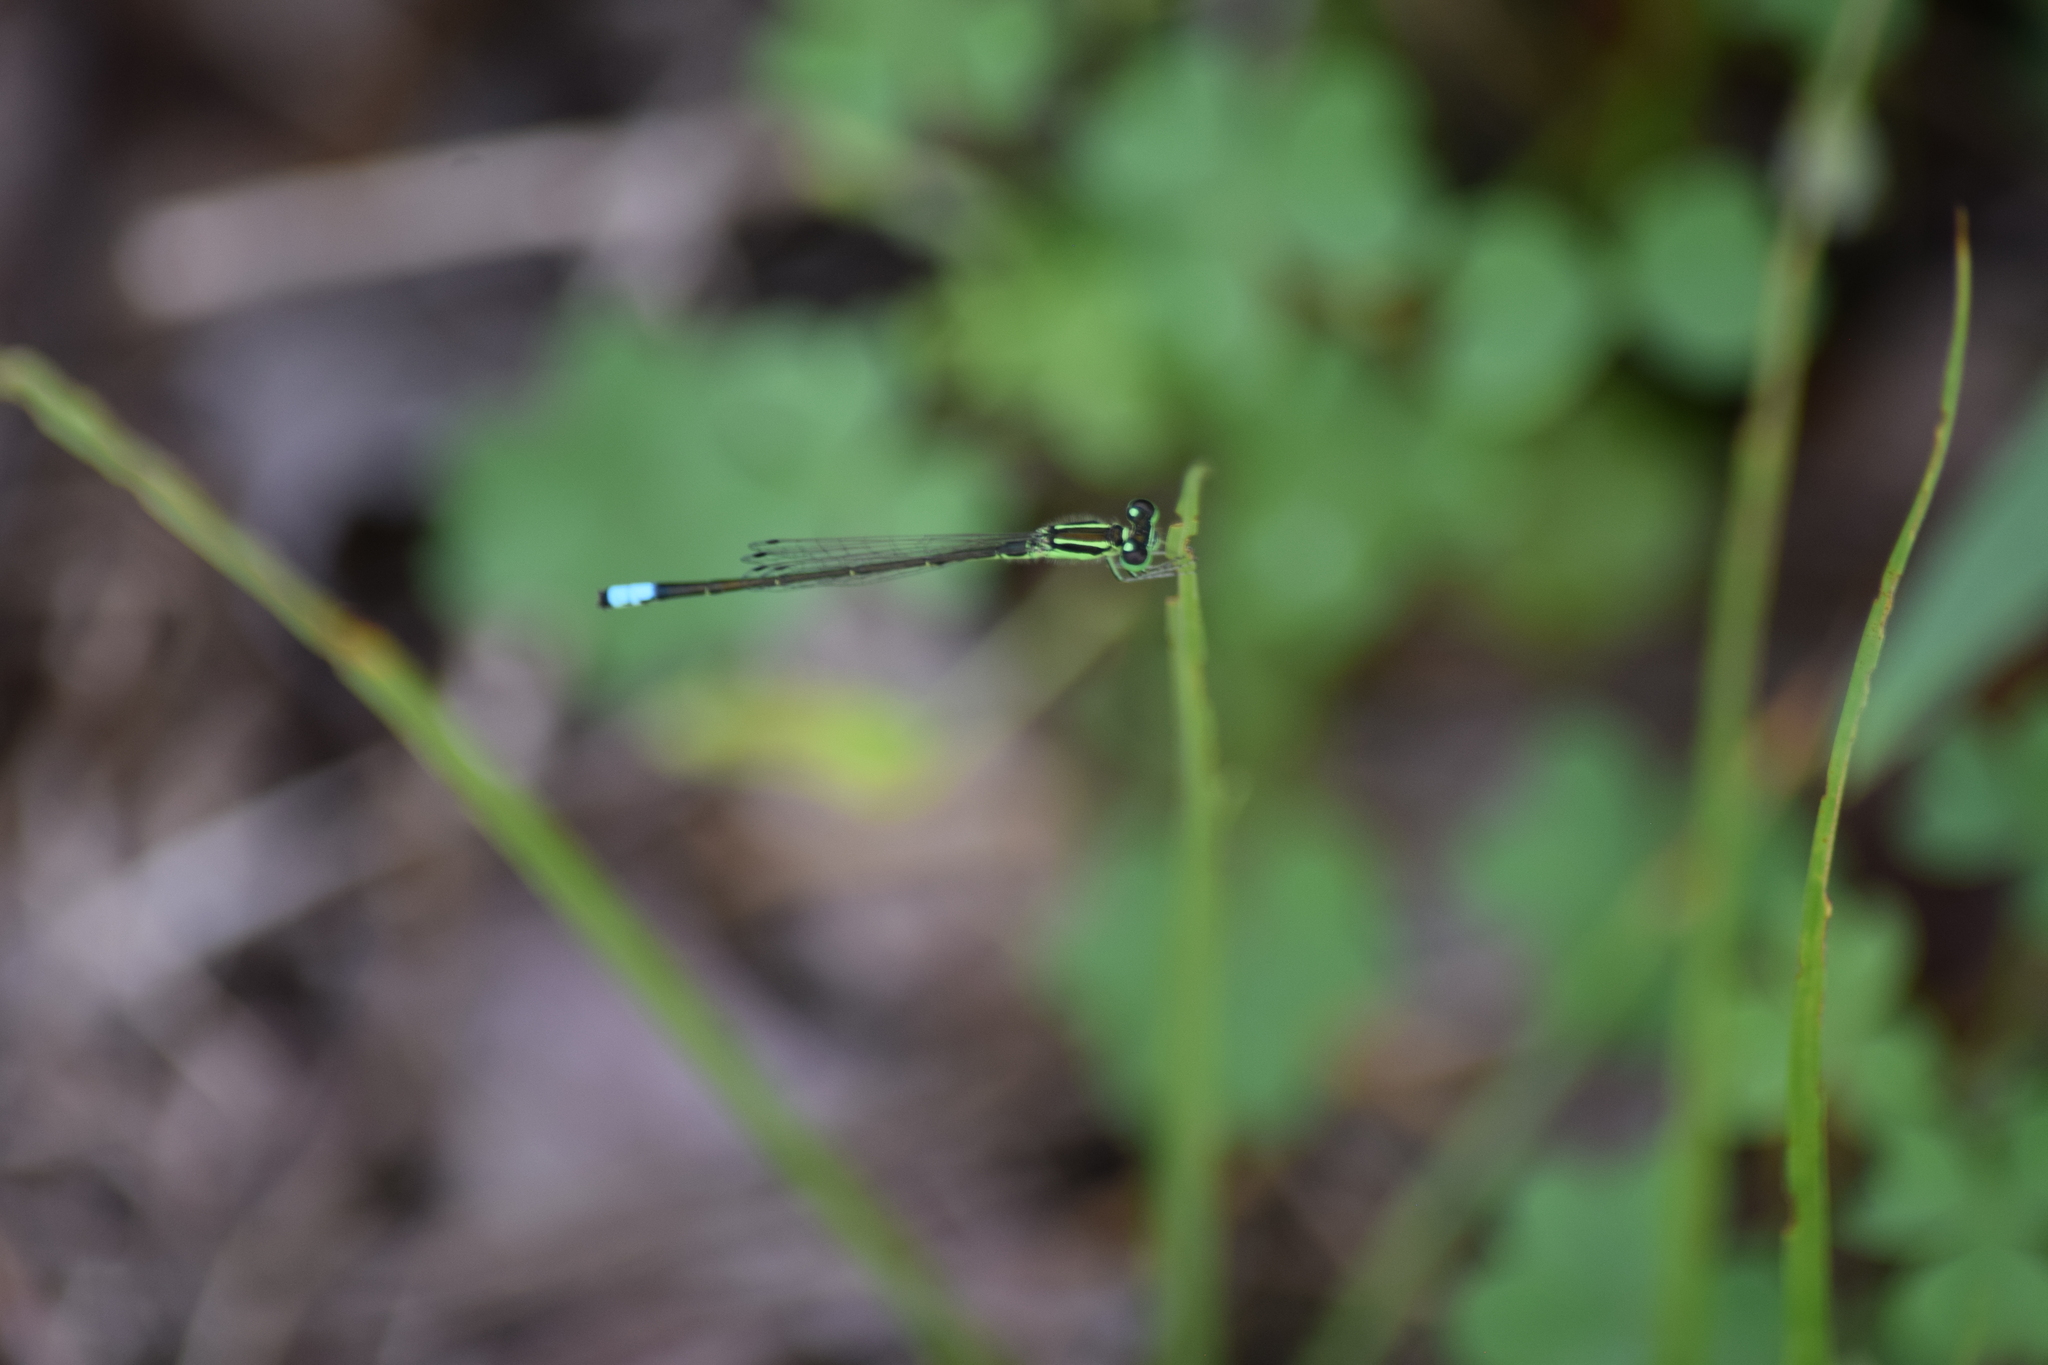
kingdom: Animalia
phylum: Arthropoda
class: Insecta
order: Odonata
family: Coenagrionidae
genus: Ischnura
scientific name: Ischnura verticalis
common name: Eastern forktail
